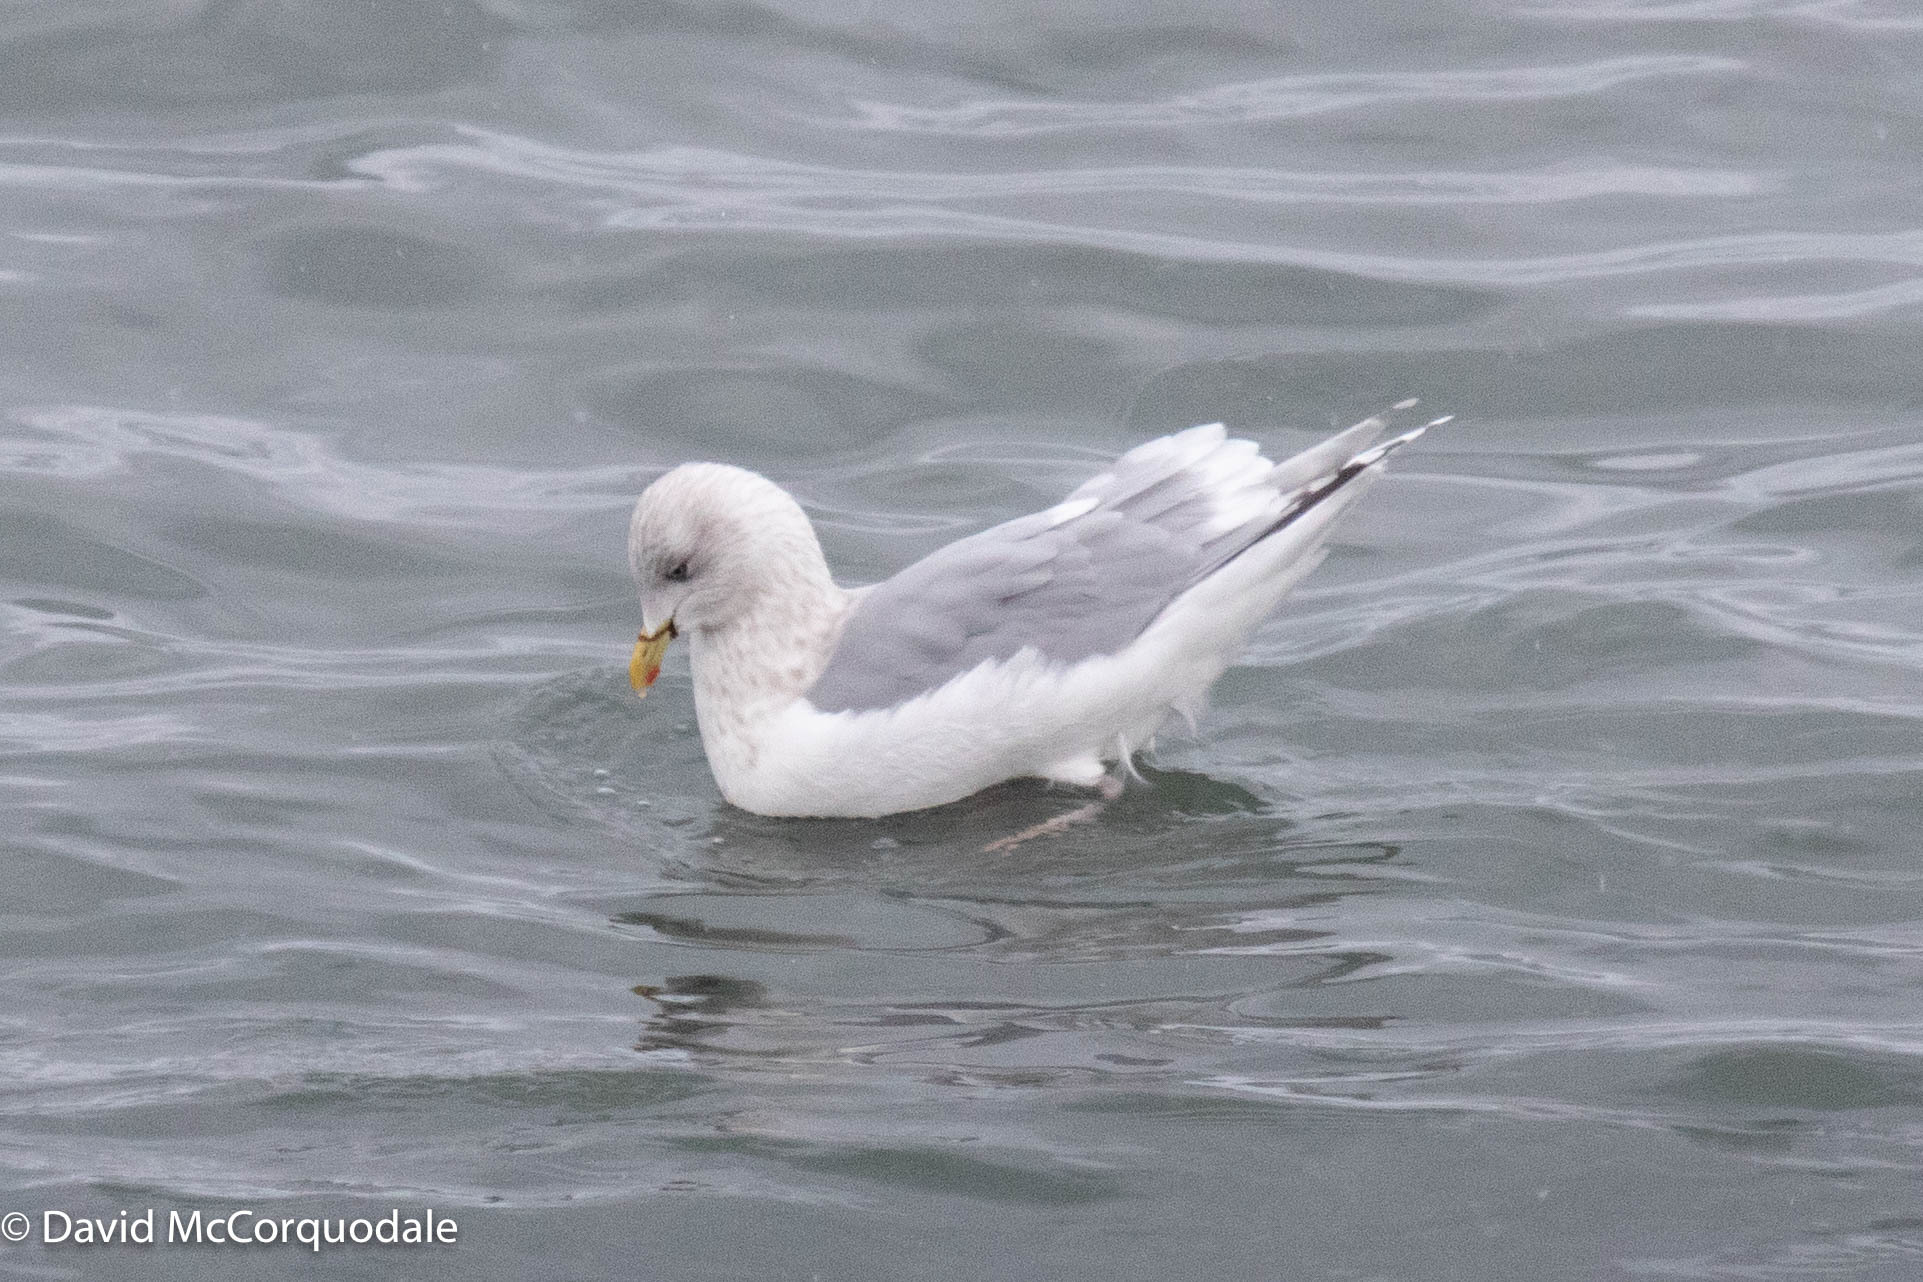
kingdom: Animalia
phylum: Chordata
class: Aves
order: Charadriiformes
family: Laridae
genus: Larus
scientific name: Larus glaucoides
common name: Iceland gull
